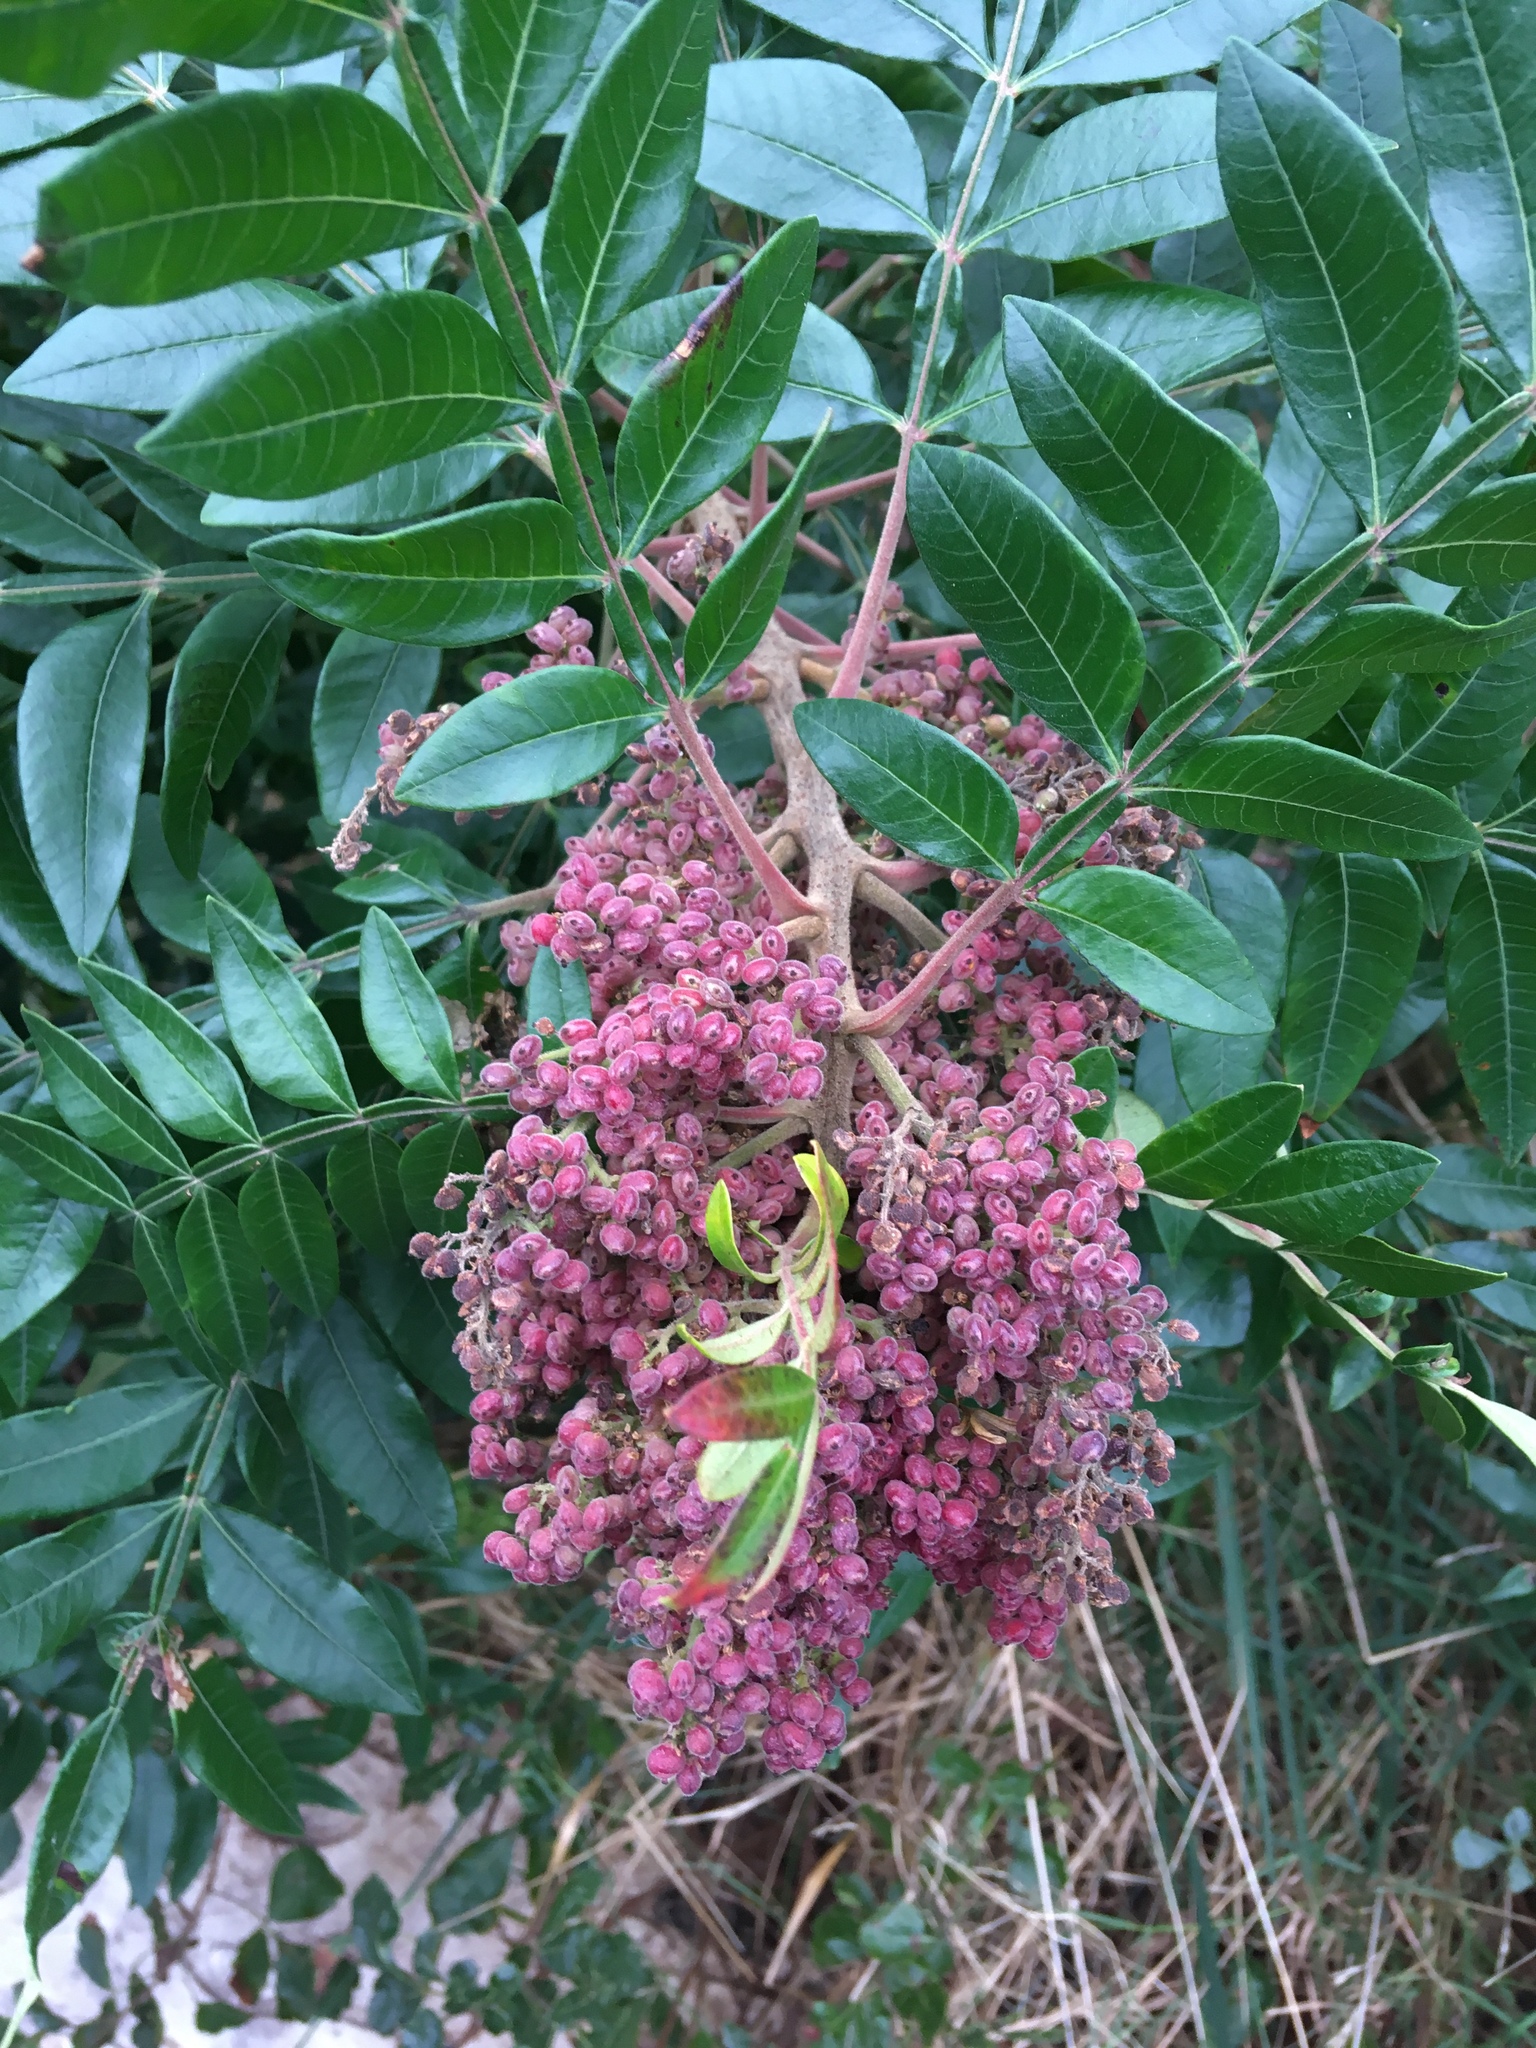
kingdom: Plantae
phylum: Tracheophyta
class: Magnoliopsida
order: Sapindales
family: Anacardiaceae
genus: Rhus
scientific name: Rhus copallina
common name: Shining sumac
